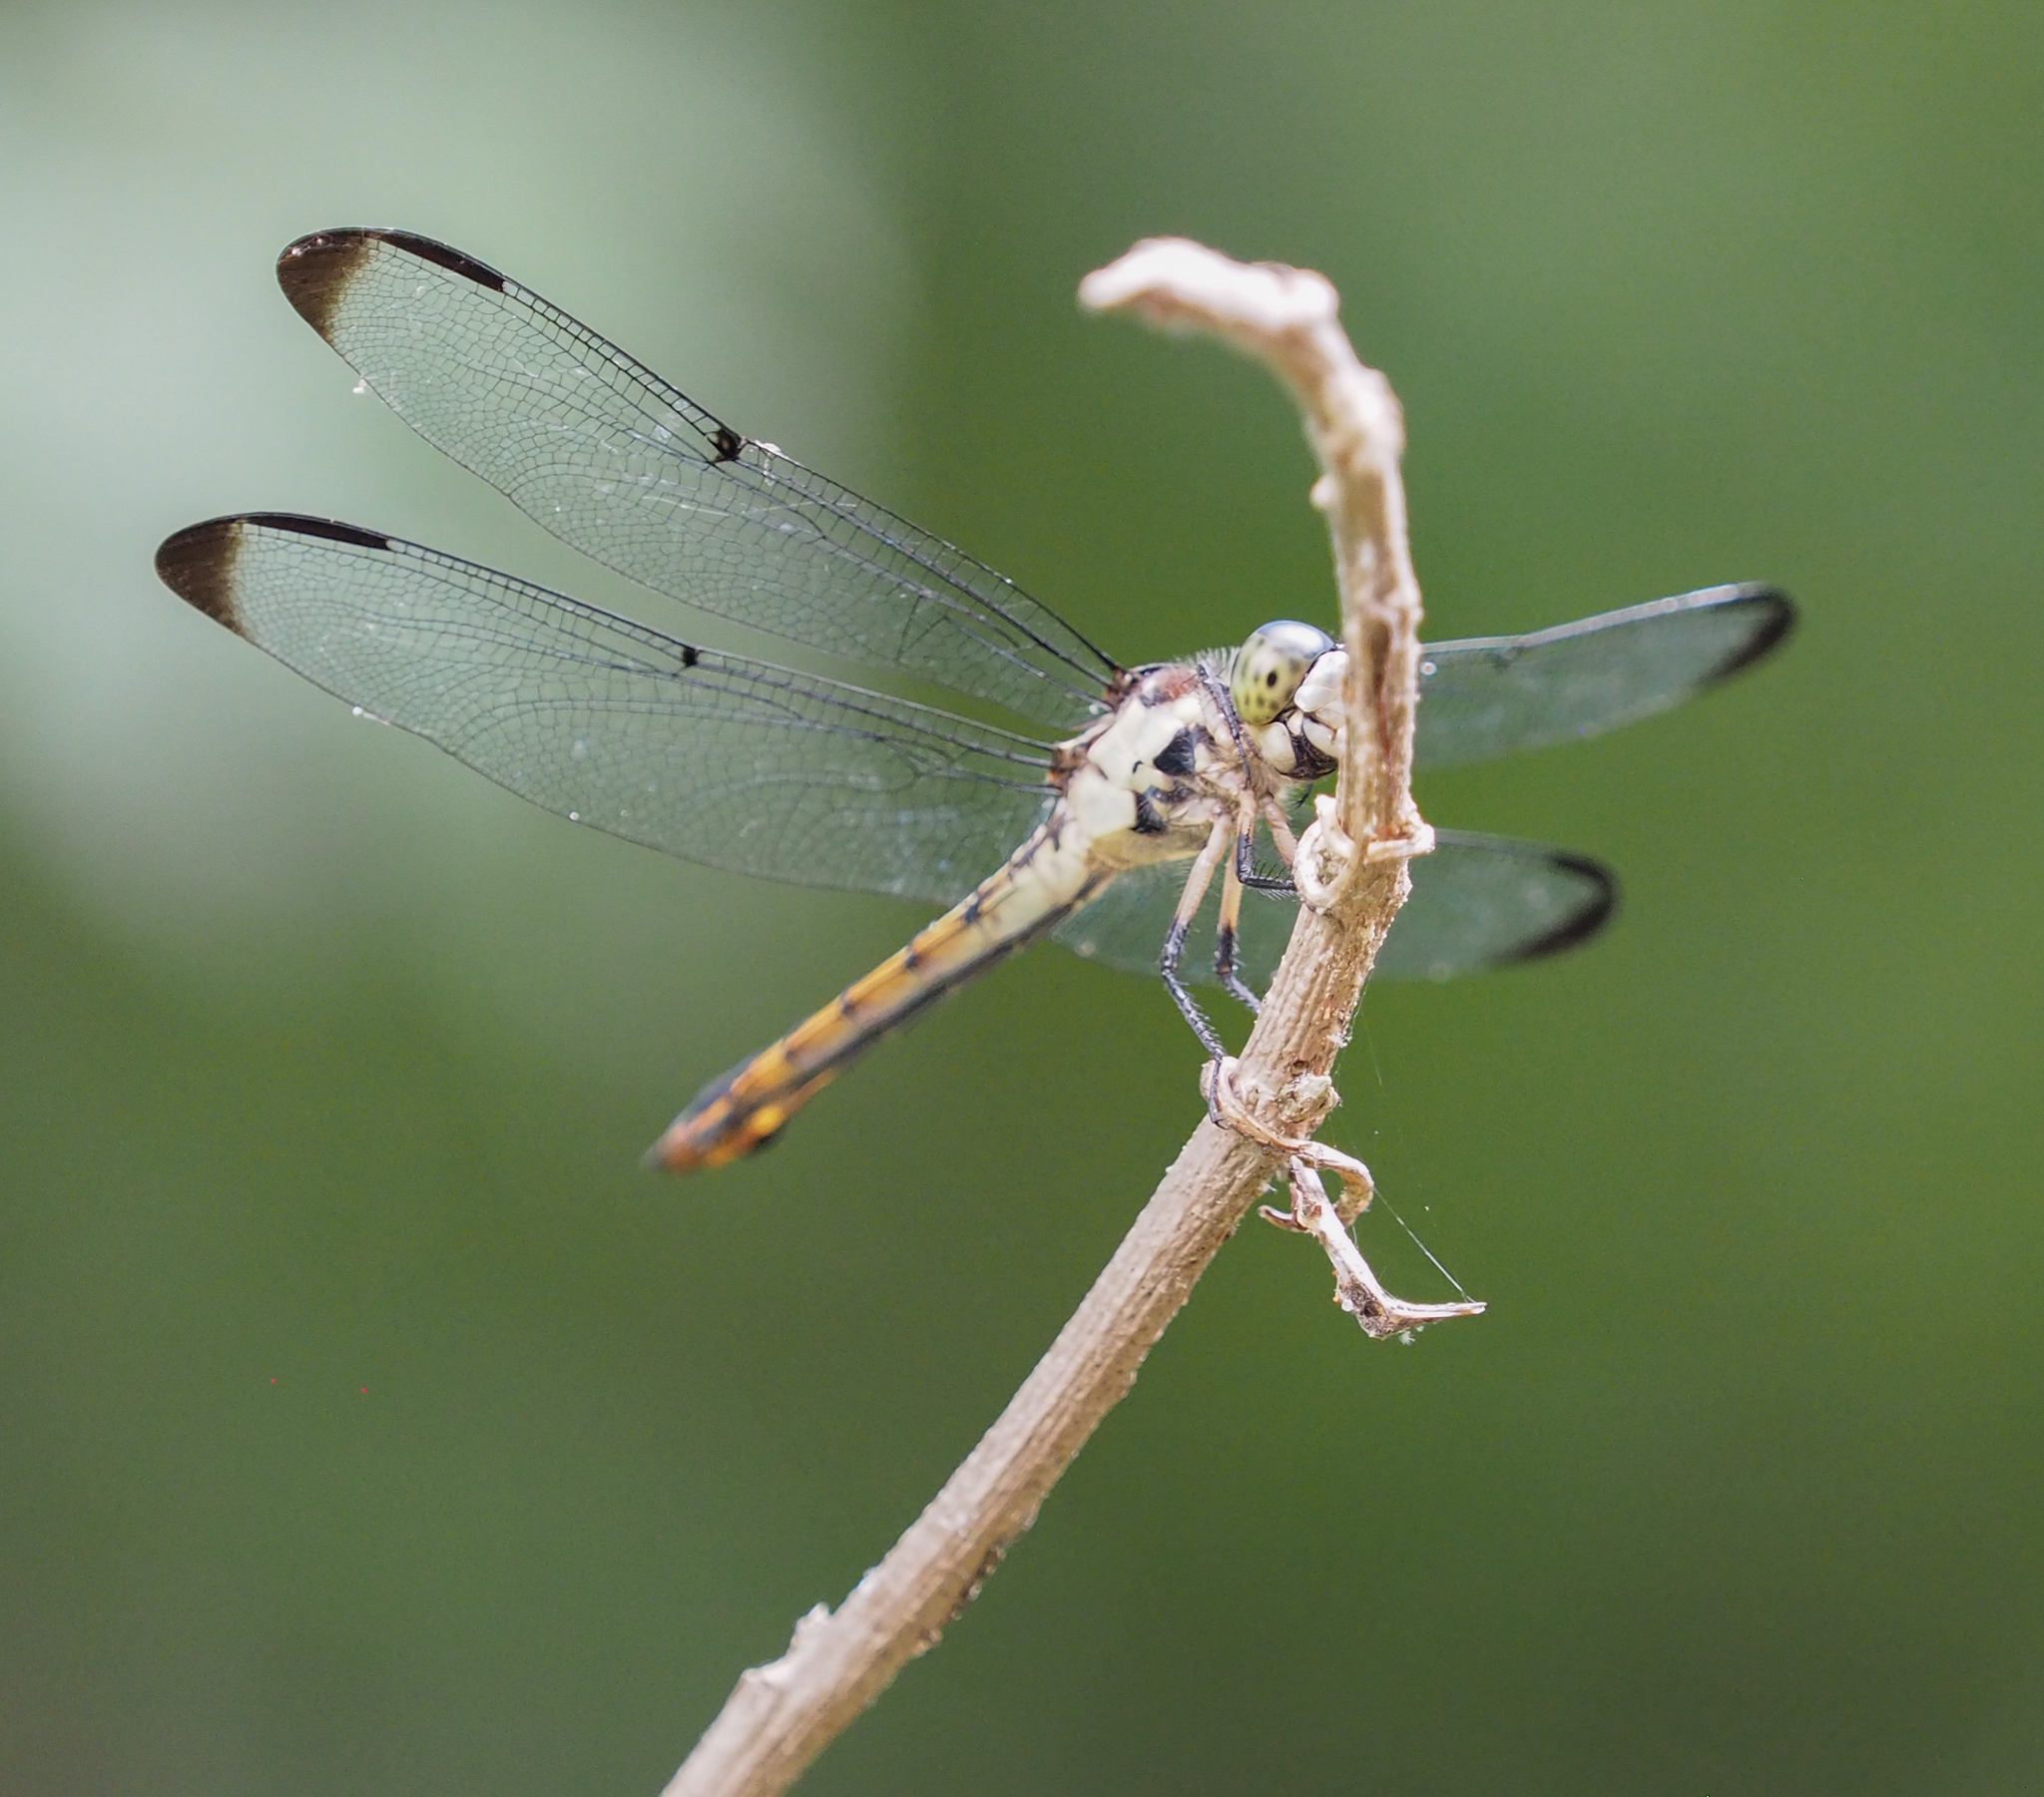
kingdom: Animalia
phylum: Arthropoda
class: Insecta
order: Odonata
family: Libellulidae
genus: Libellula
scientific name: Libellula vibrans
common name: Great blue skimmer
